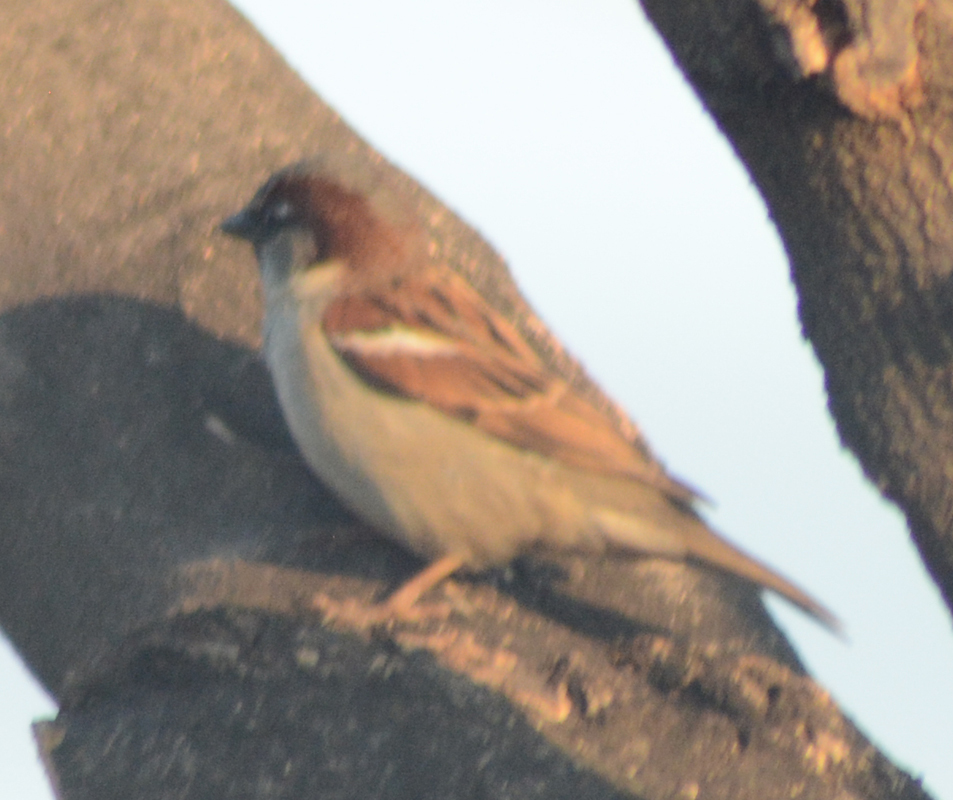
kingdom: Animalia
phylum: Chordata
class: Aves
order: Passeriformes
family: Passeridae
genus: Passer
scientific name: Passer domesticus
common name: House sparrow
